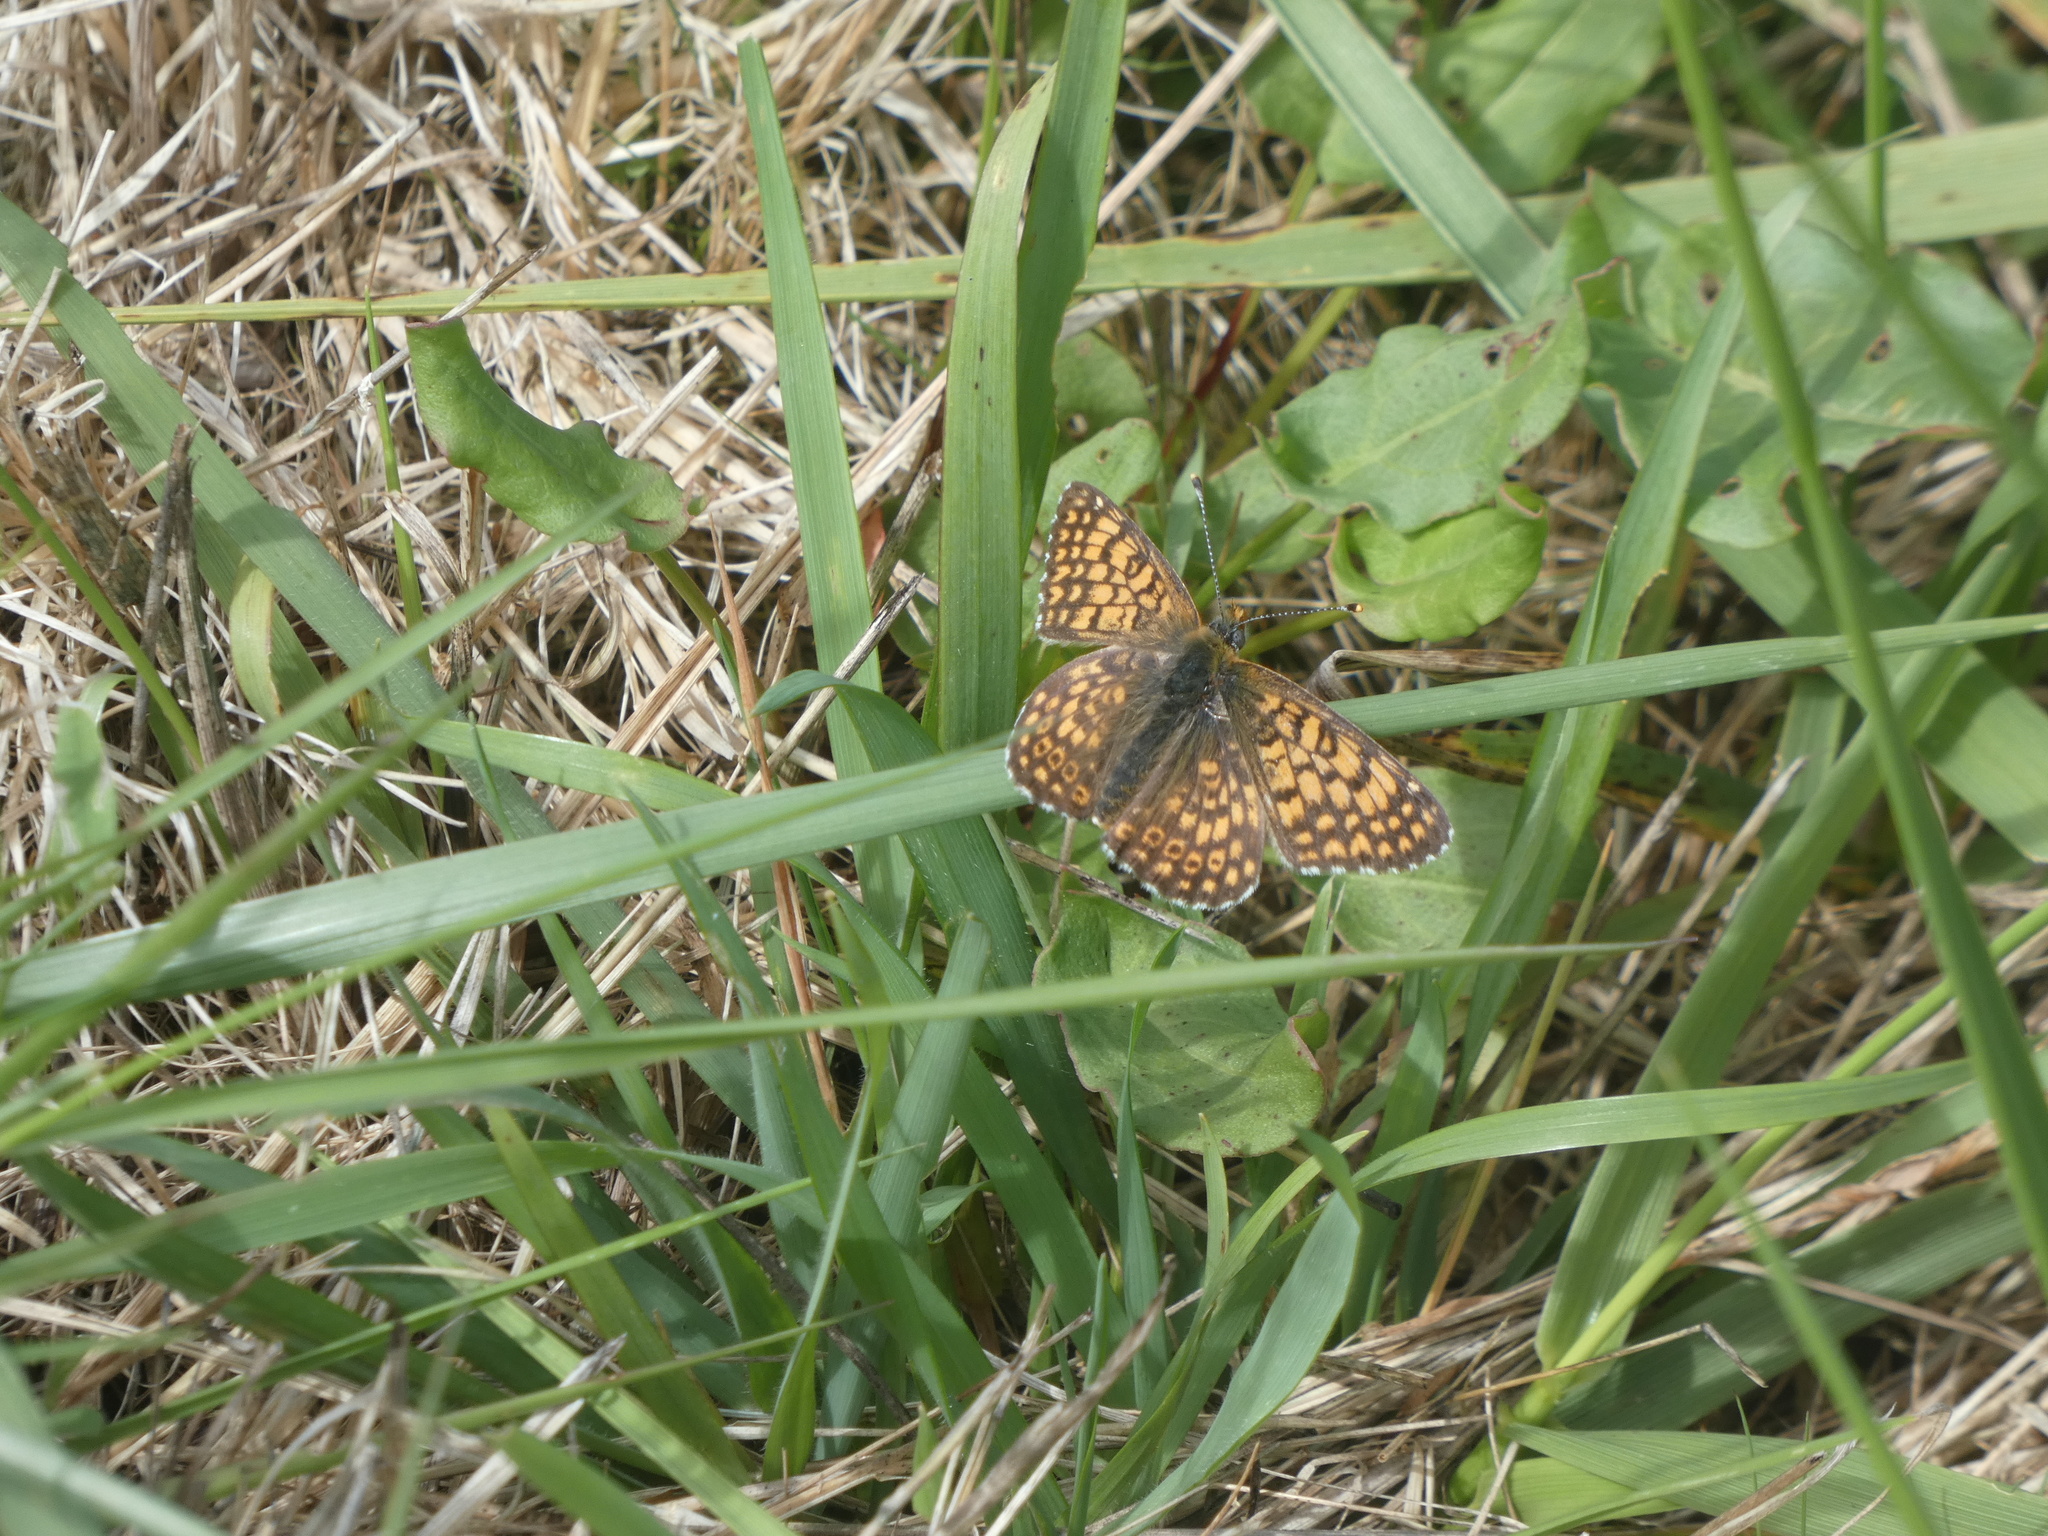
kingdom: Animalia
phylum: Arthropoda
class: Insecta
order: Lepidoptera
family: Nymphalidae
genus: Melitaea
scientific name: Melitaea cinxia
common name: Glanville fritillary
